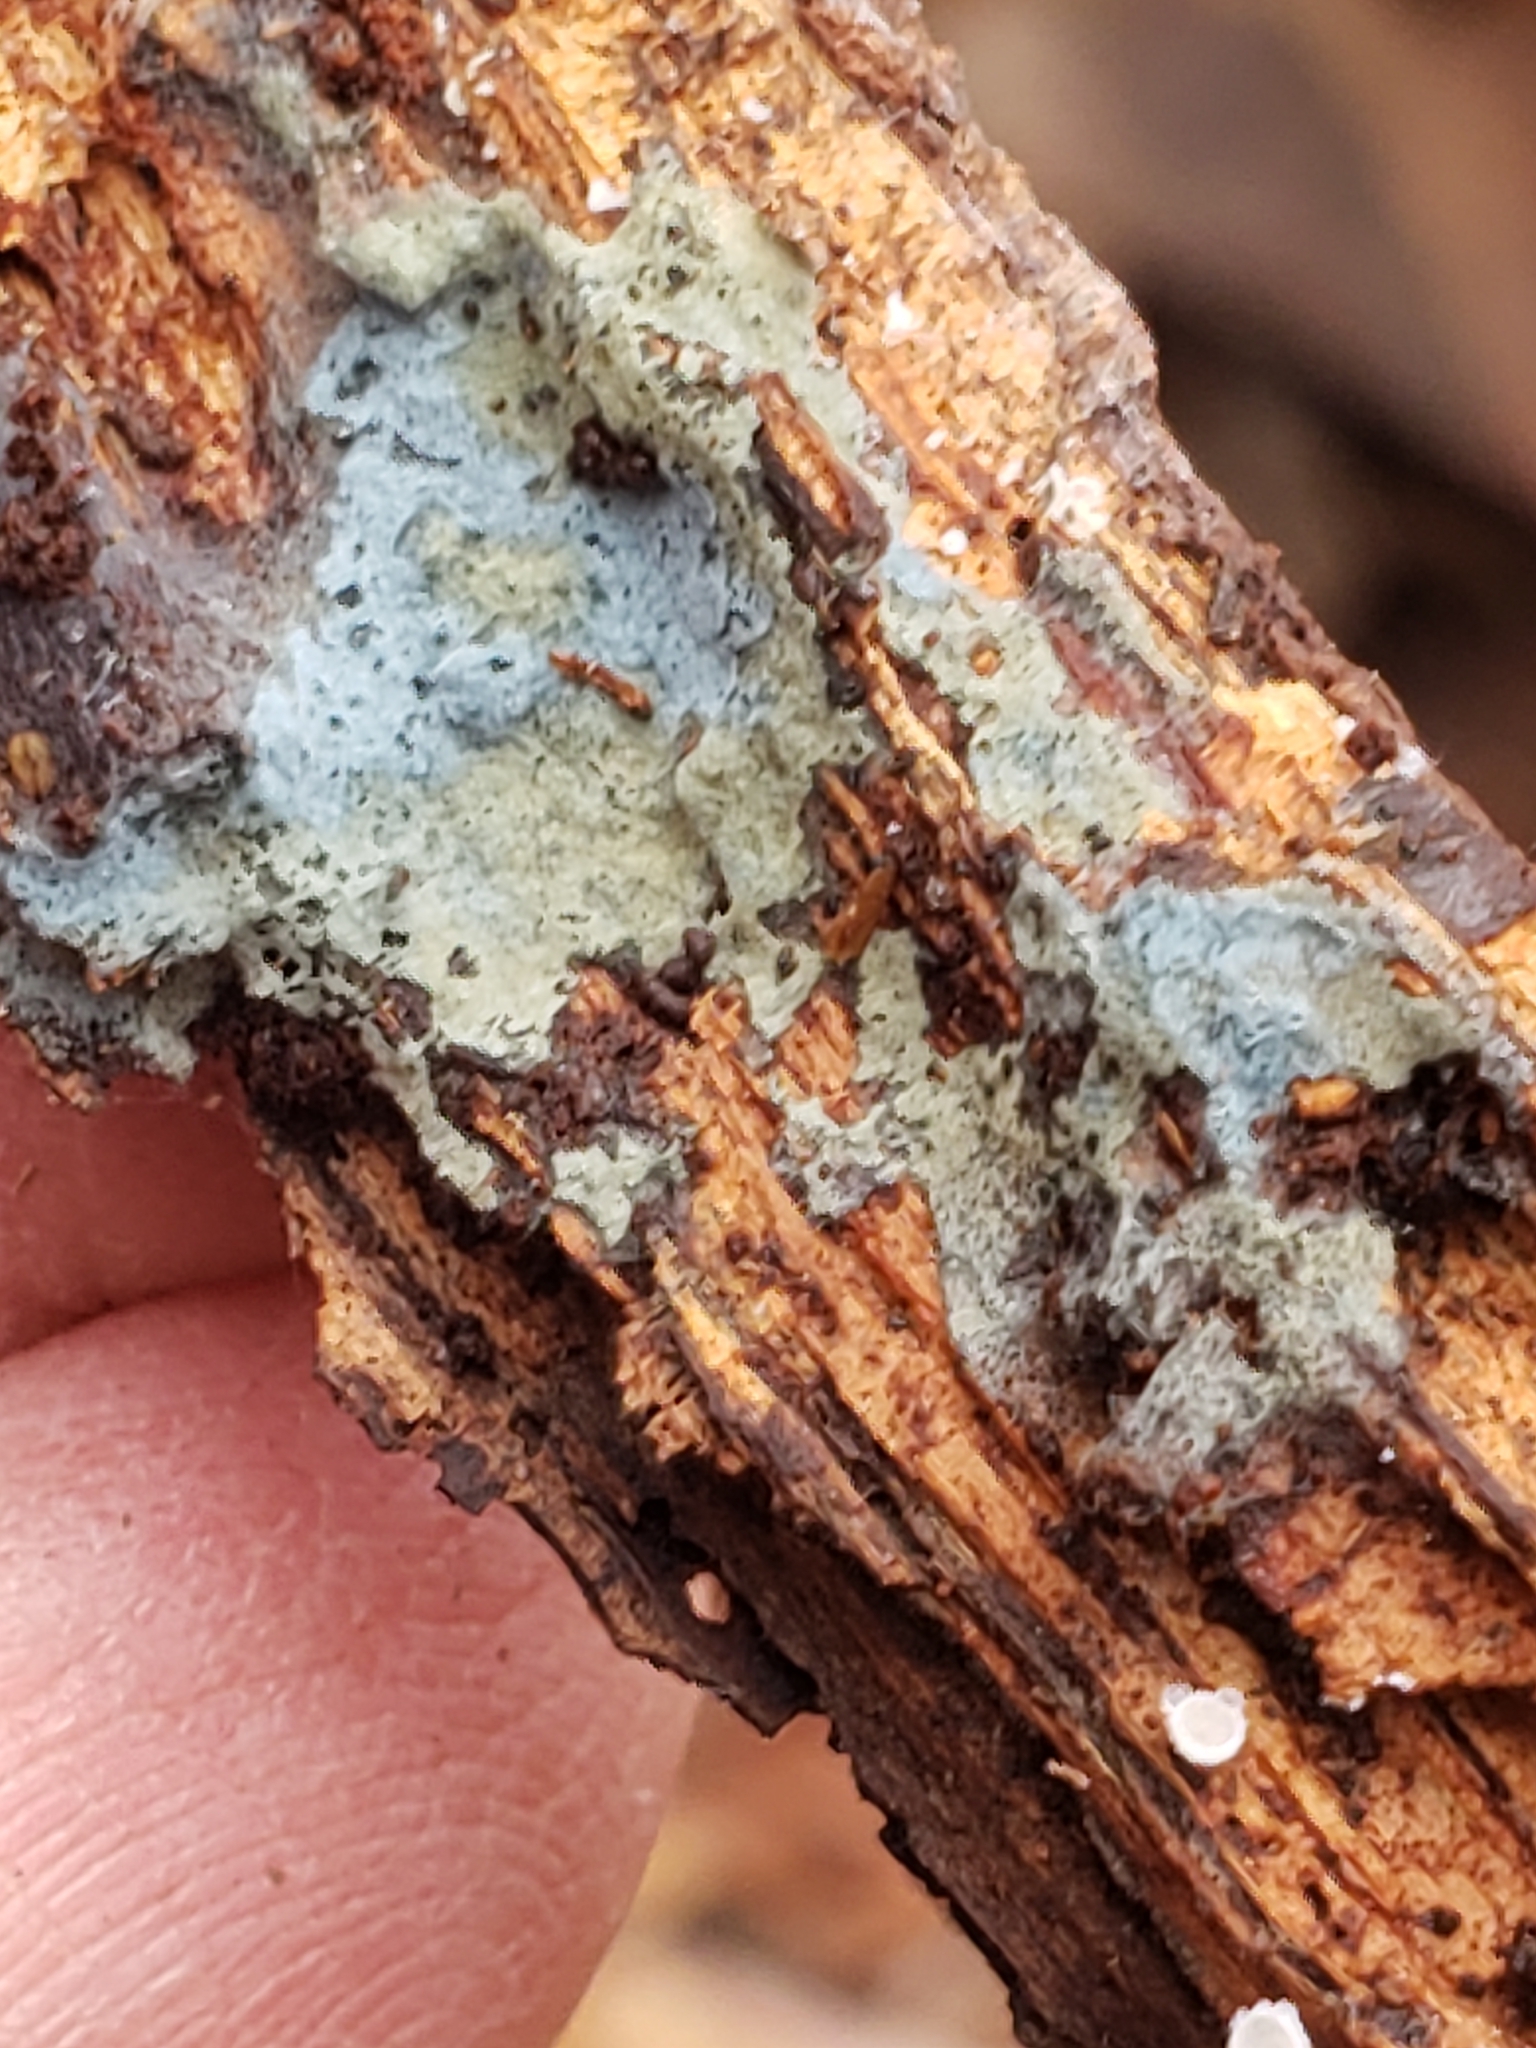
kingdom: Fungi
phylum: Basidiomycota
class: Agaricomycetes
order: Atheliales
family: Atheliaceae
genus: Byssocorticium
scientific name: Byssocorticium atrovirens
